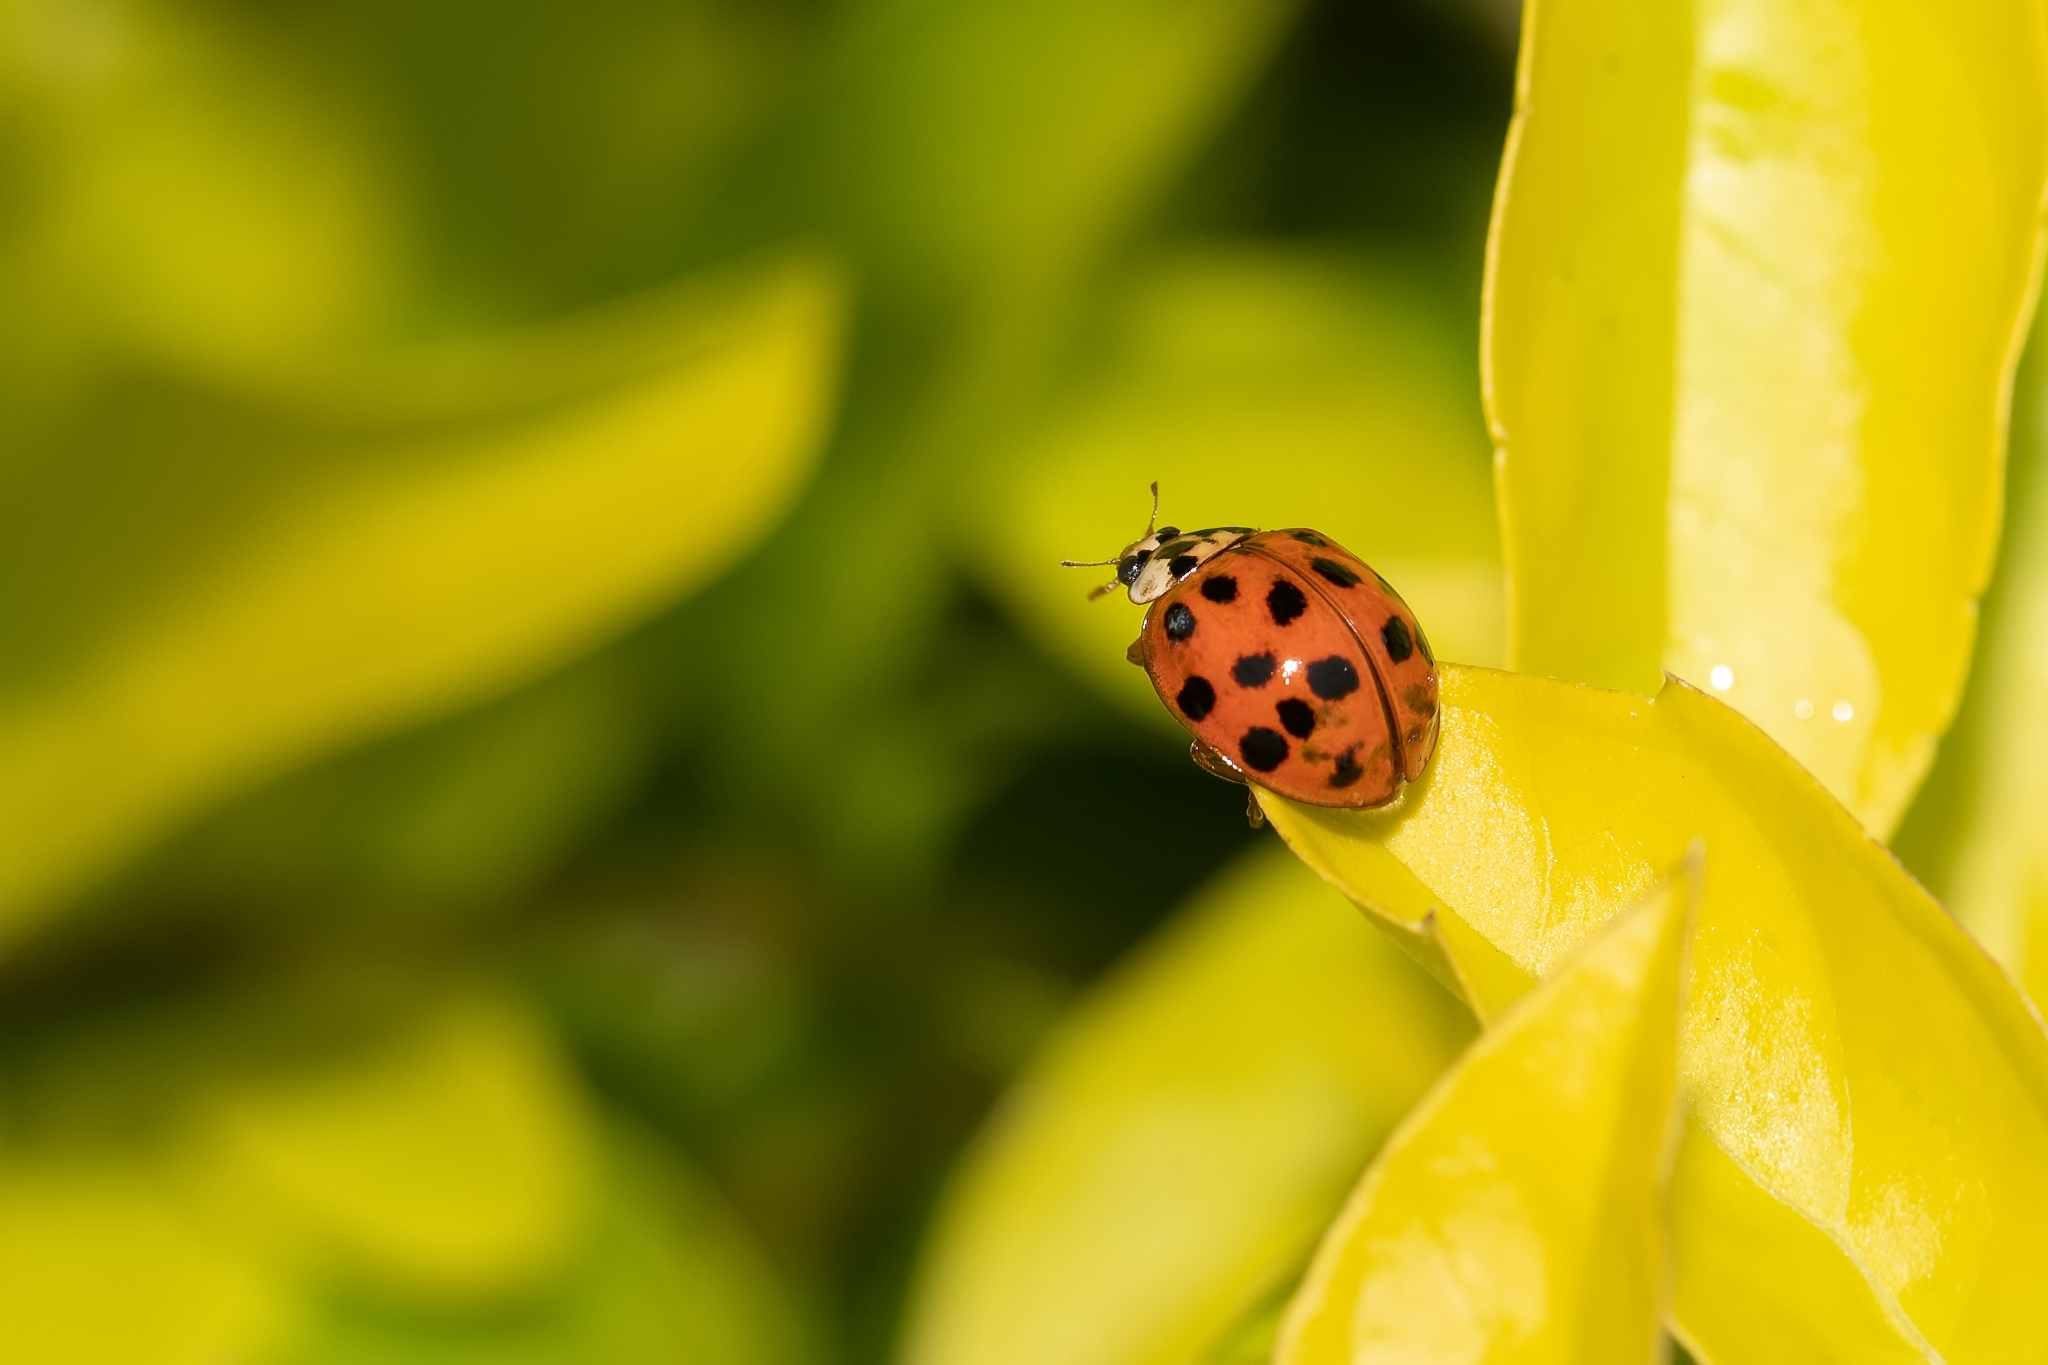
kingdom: Animalia
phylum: Arthropoda
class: Insecta
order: Coleoptera
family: Coccinellidae
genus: Harmonia
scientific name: Harmonia axyridis
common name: Harlequin ladybird
